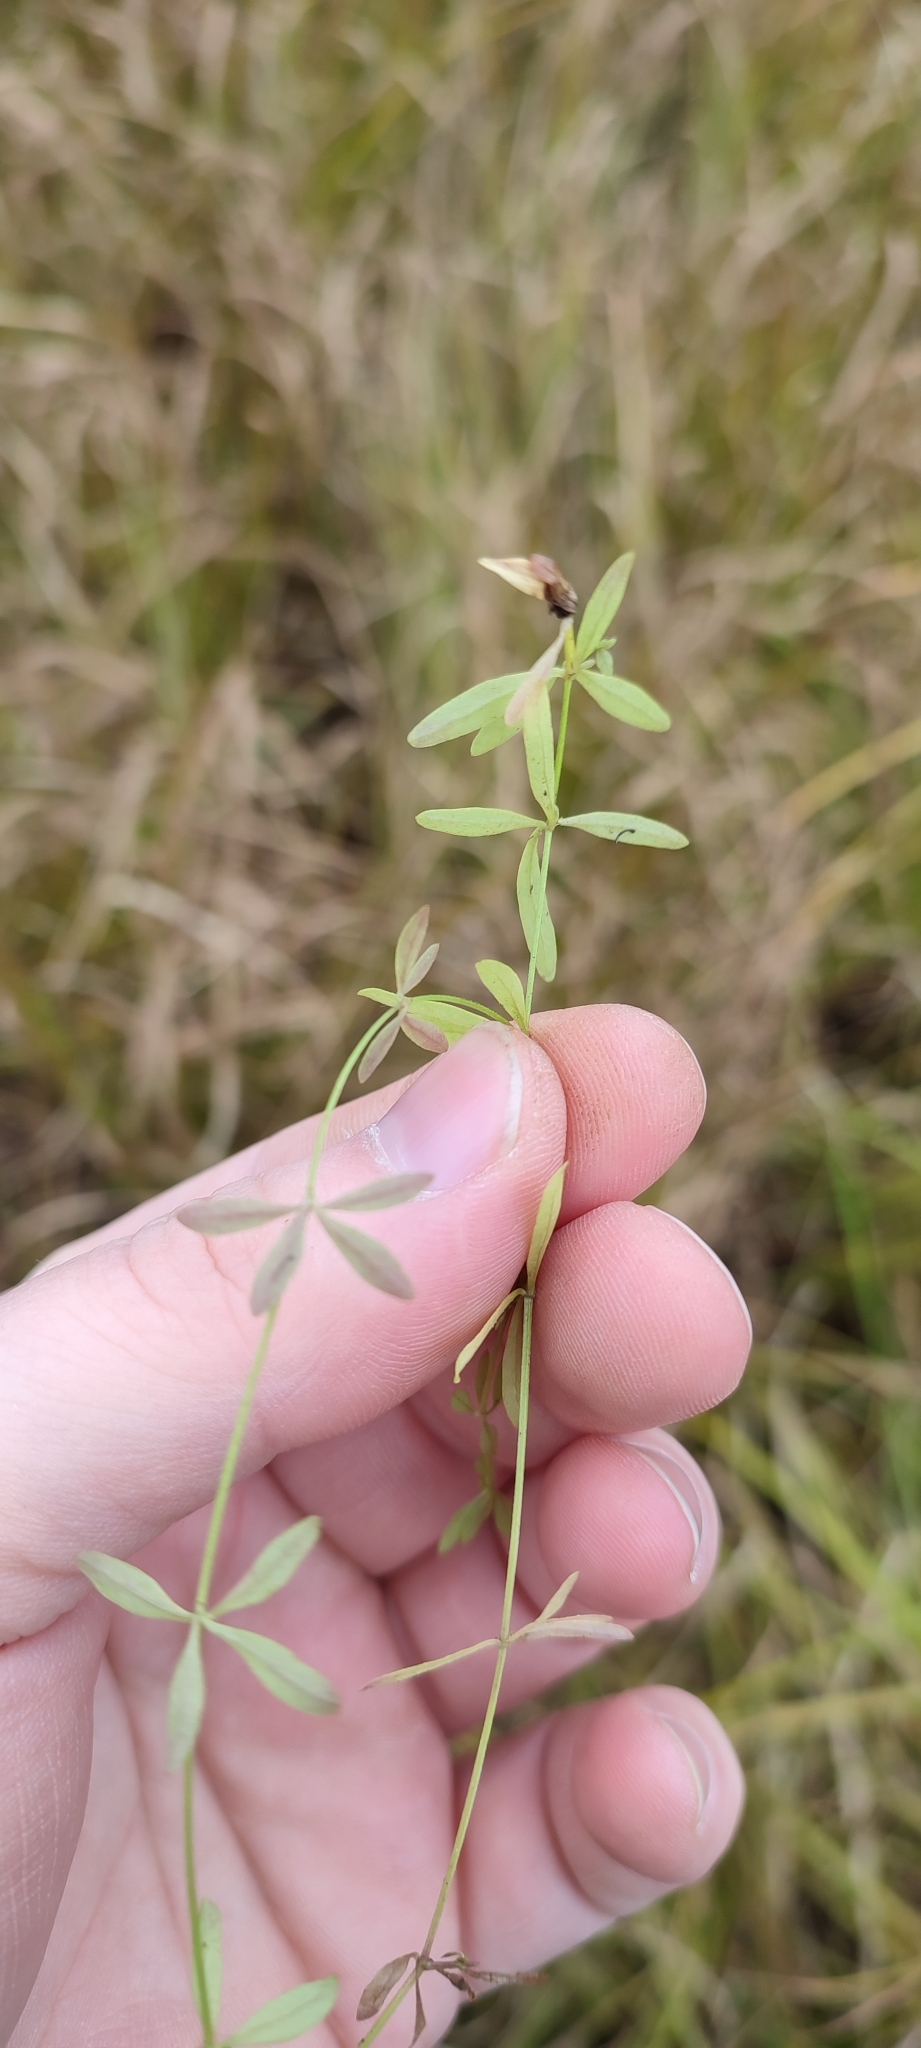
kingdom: Plantae
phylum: Tracheophyta
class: Magnoliopsida
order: Gentianales
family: Rubiaceae
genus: Galium
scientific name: Galium palustre
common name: Common marsh-bedstraw
